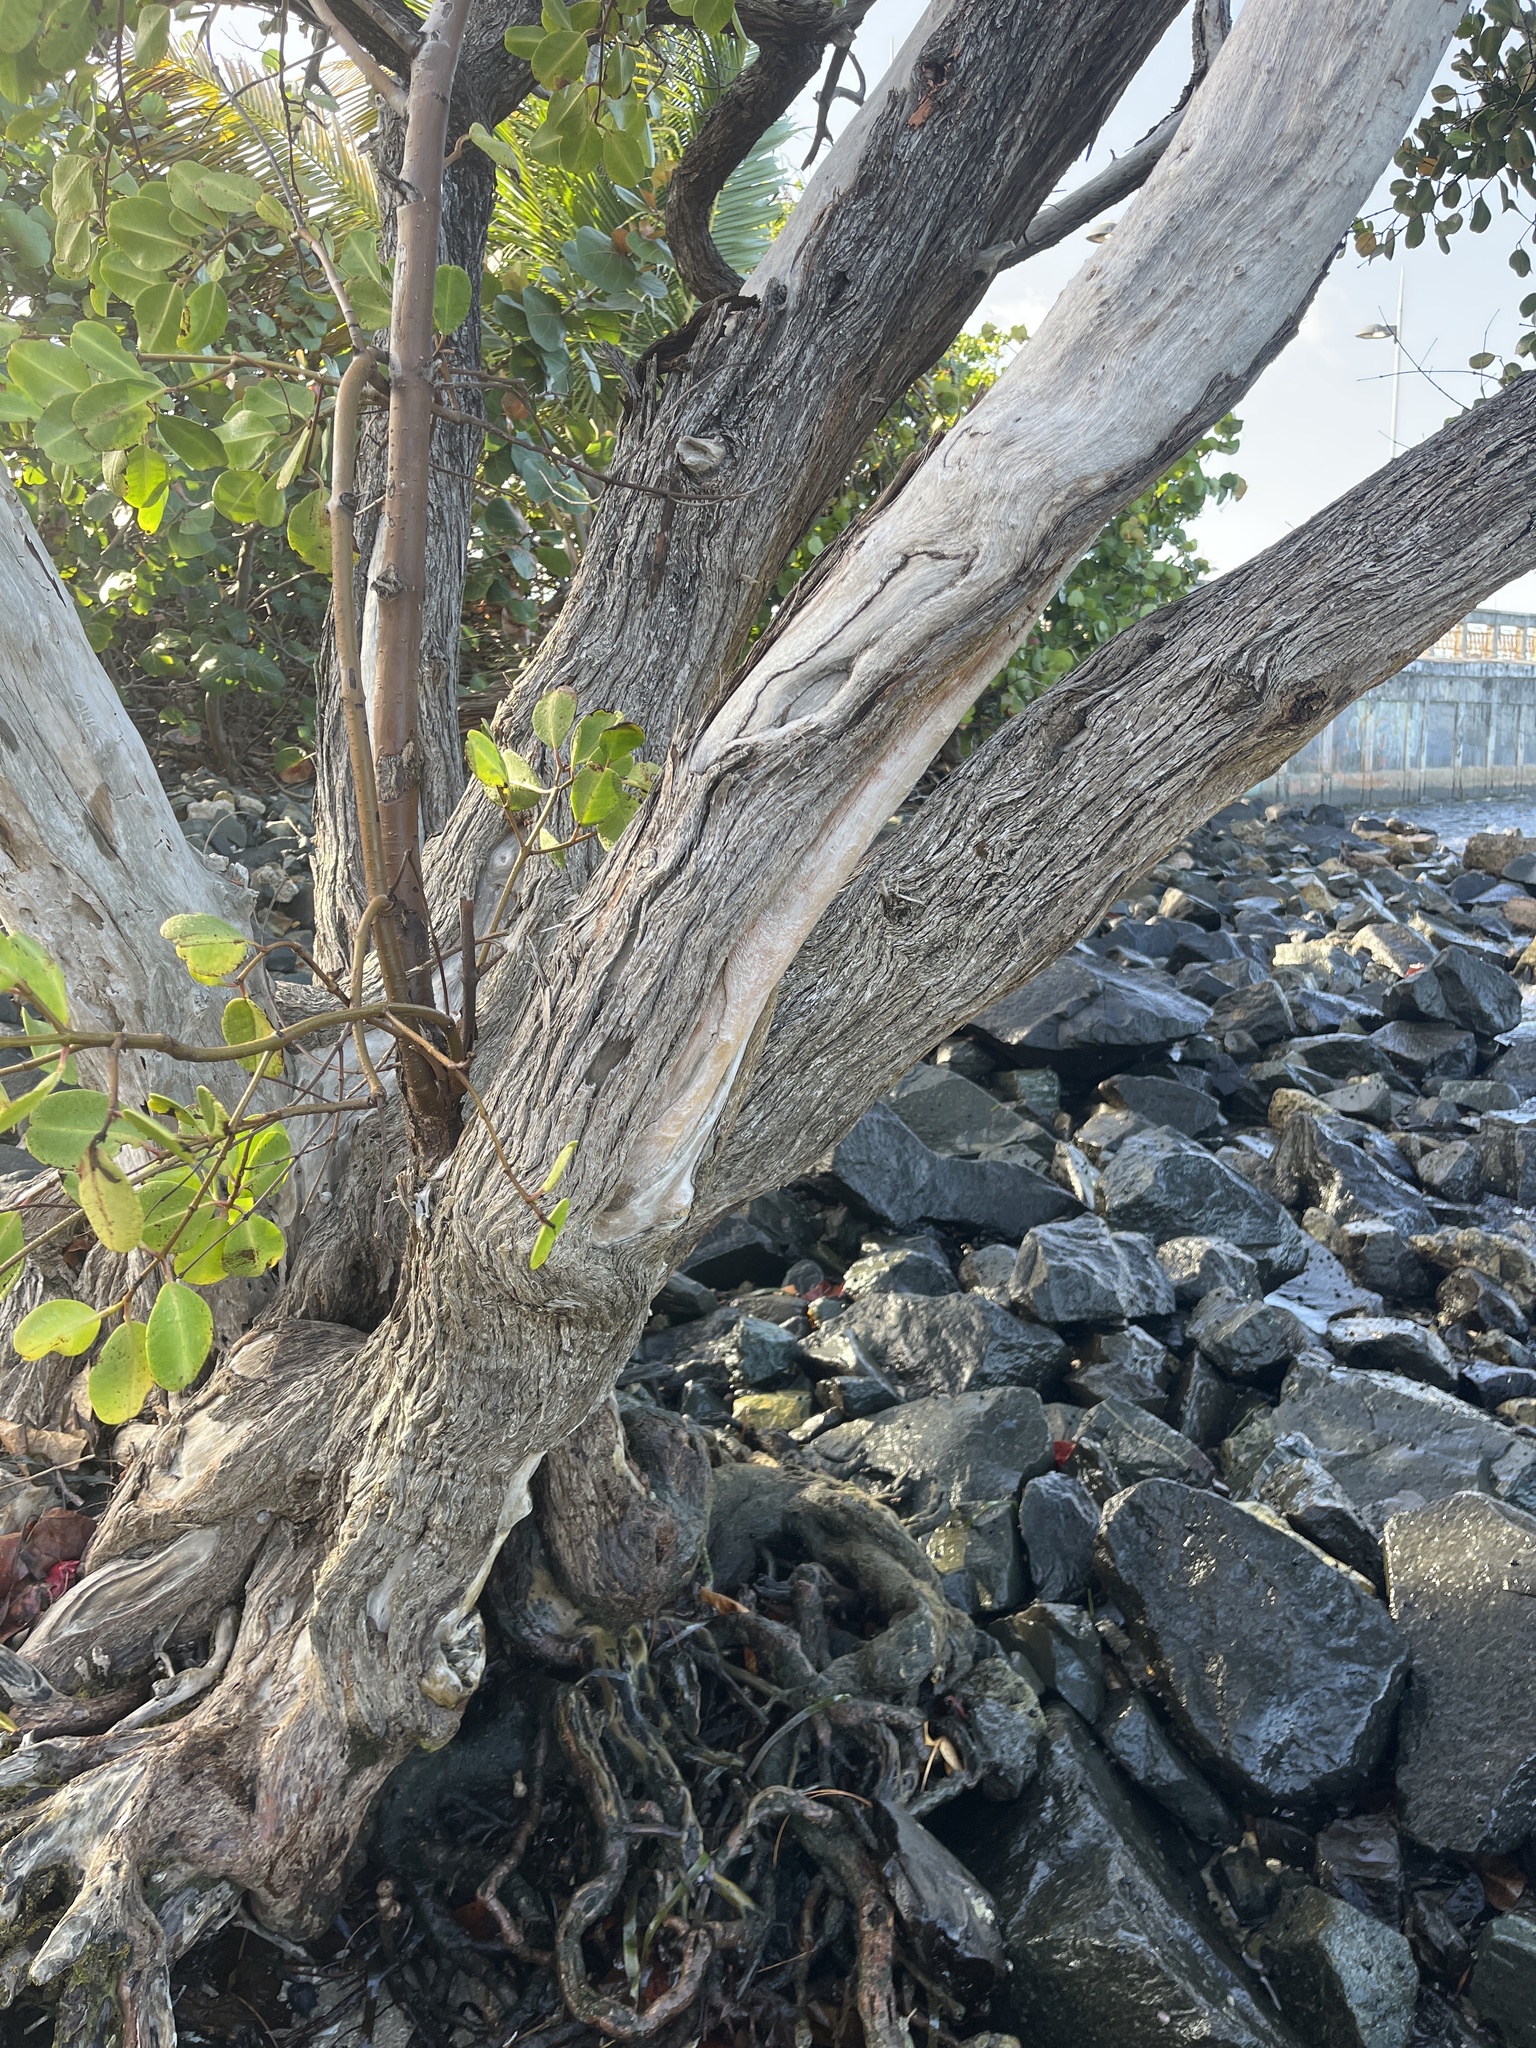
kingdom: Plantae
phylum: Tracheophyta
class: Magnoliopsida
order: Myrtales
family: Combretaceae
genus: Laguncularia
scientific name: Laguncularia racemosa
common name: White mangrove
